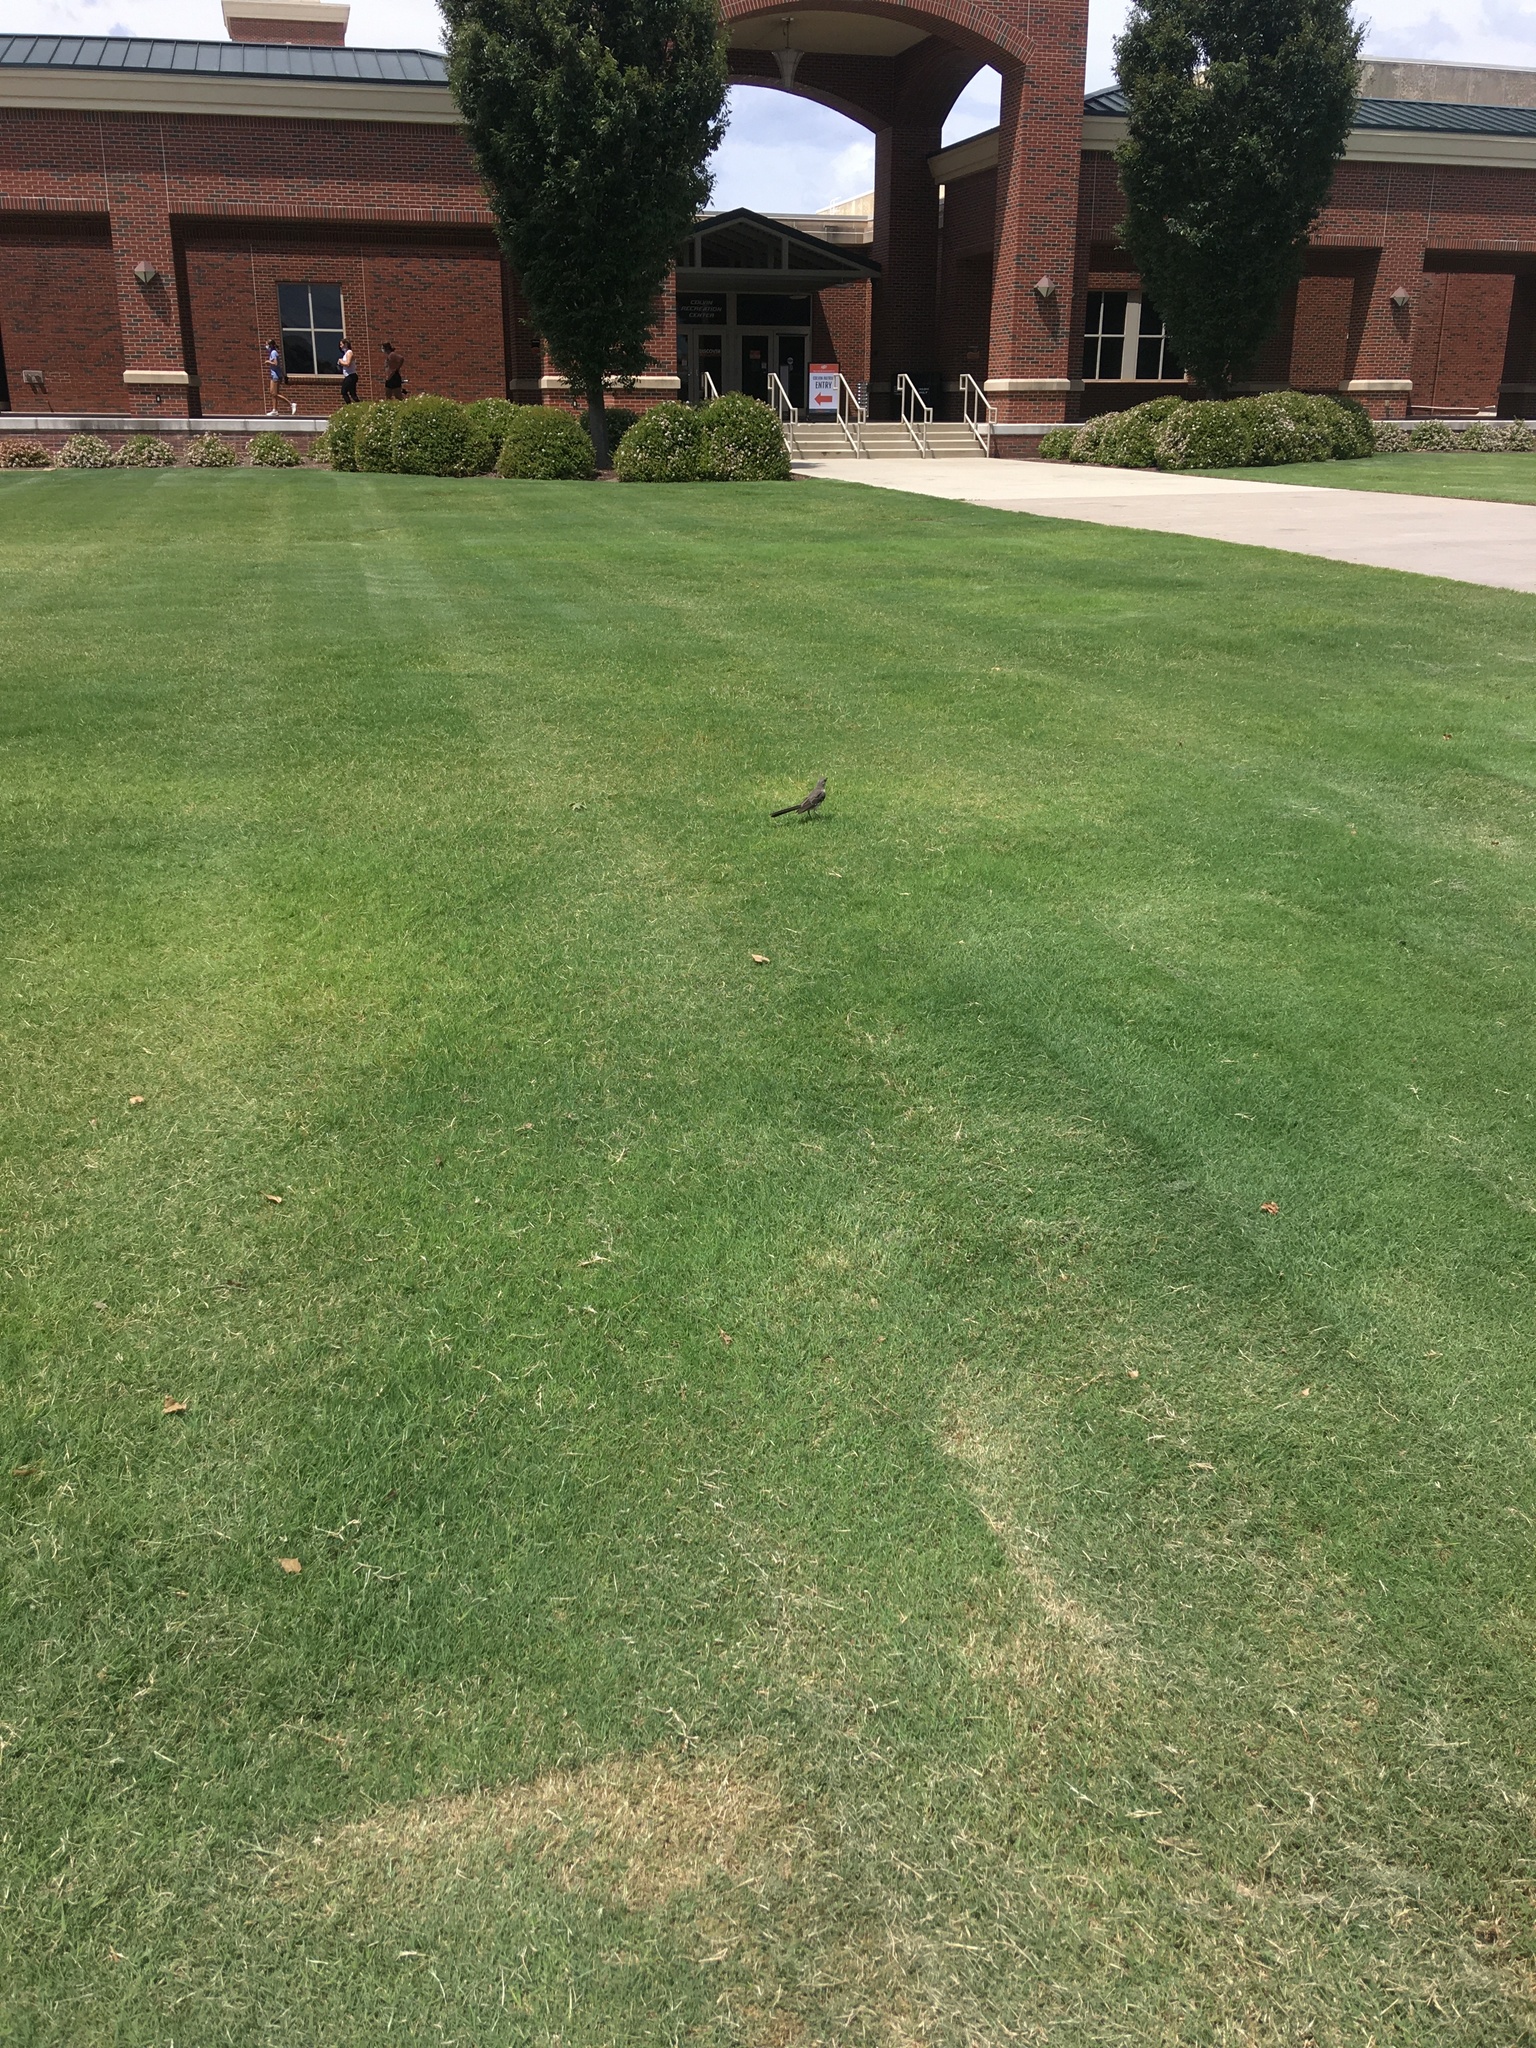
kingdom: Animalia
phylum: Chordata
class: Aves
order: Passeriformes
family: Mimidae
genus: Mimus
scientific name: Mimus polyglottos
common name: Northern mockingbird
